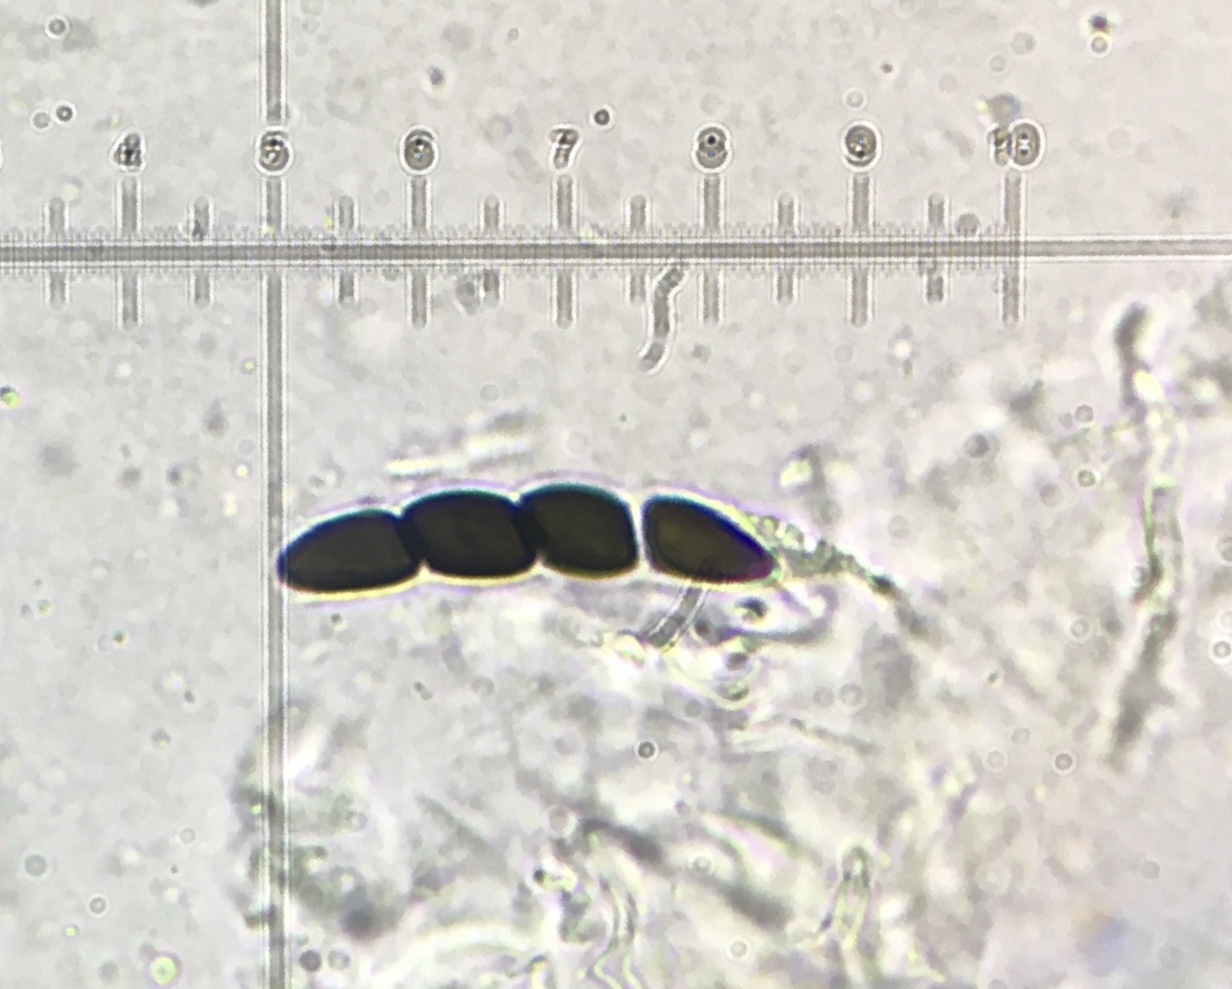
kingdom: Fungi
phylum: Ascomycota
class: Dothideomycetes
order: Pleosporales
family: Sporormiaceae
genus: Sporormiella
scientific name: Sporormiella muskokensis
